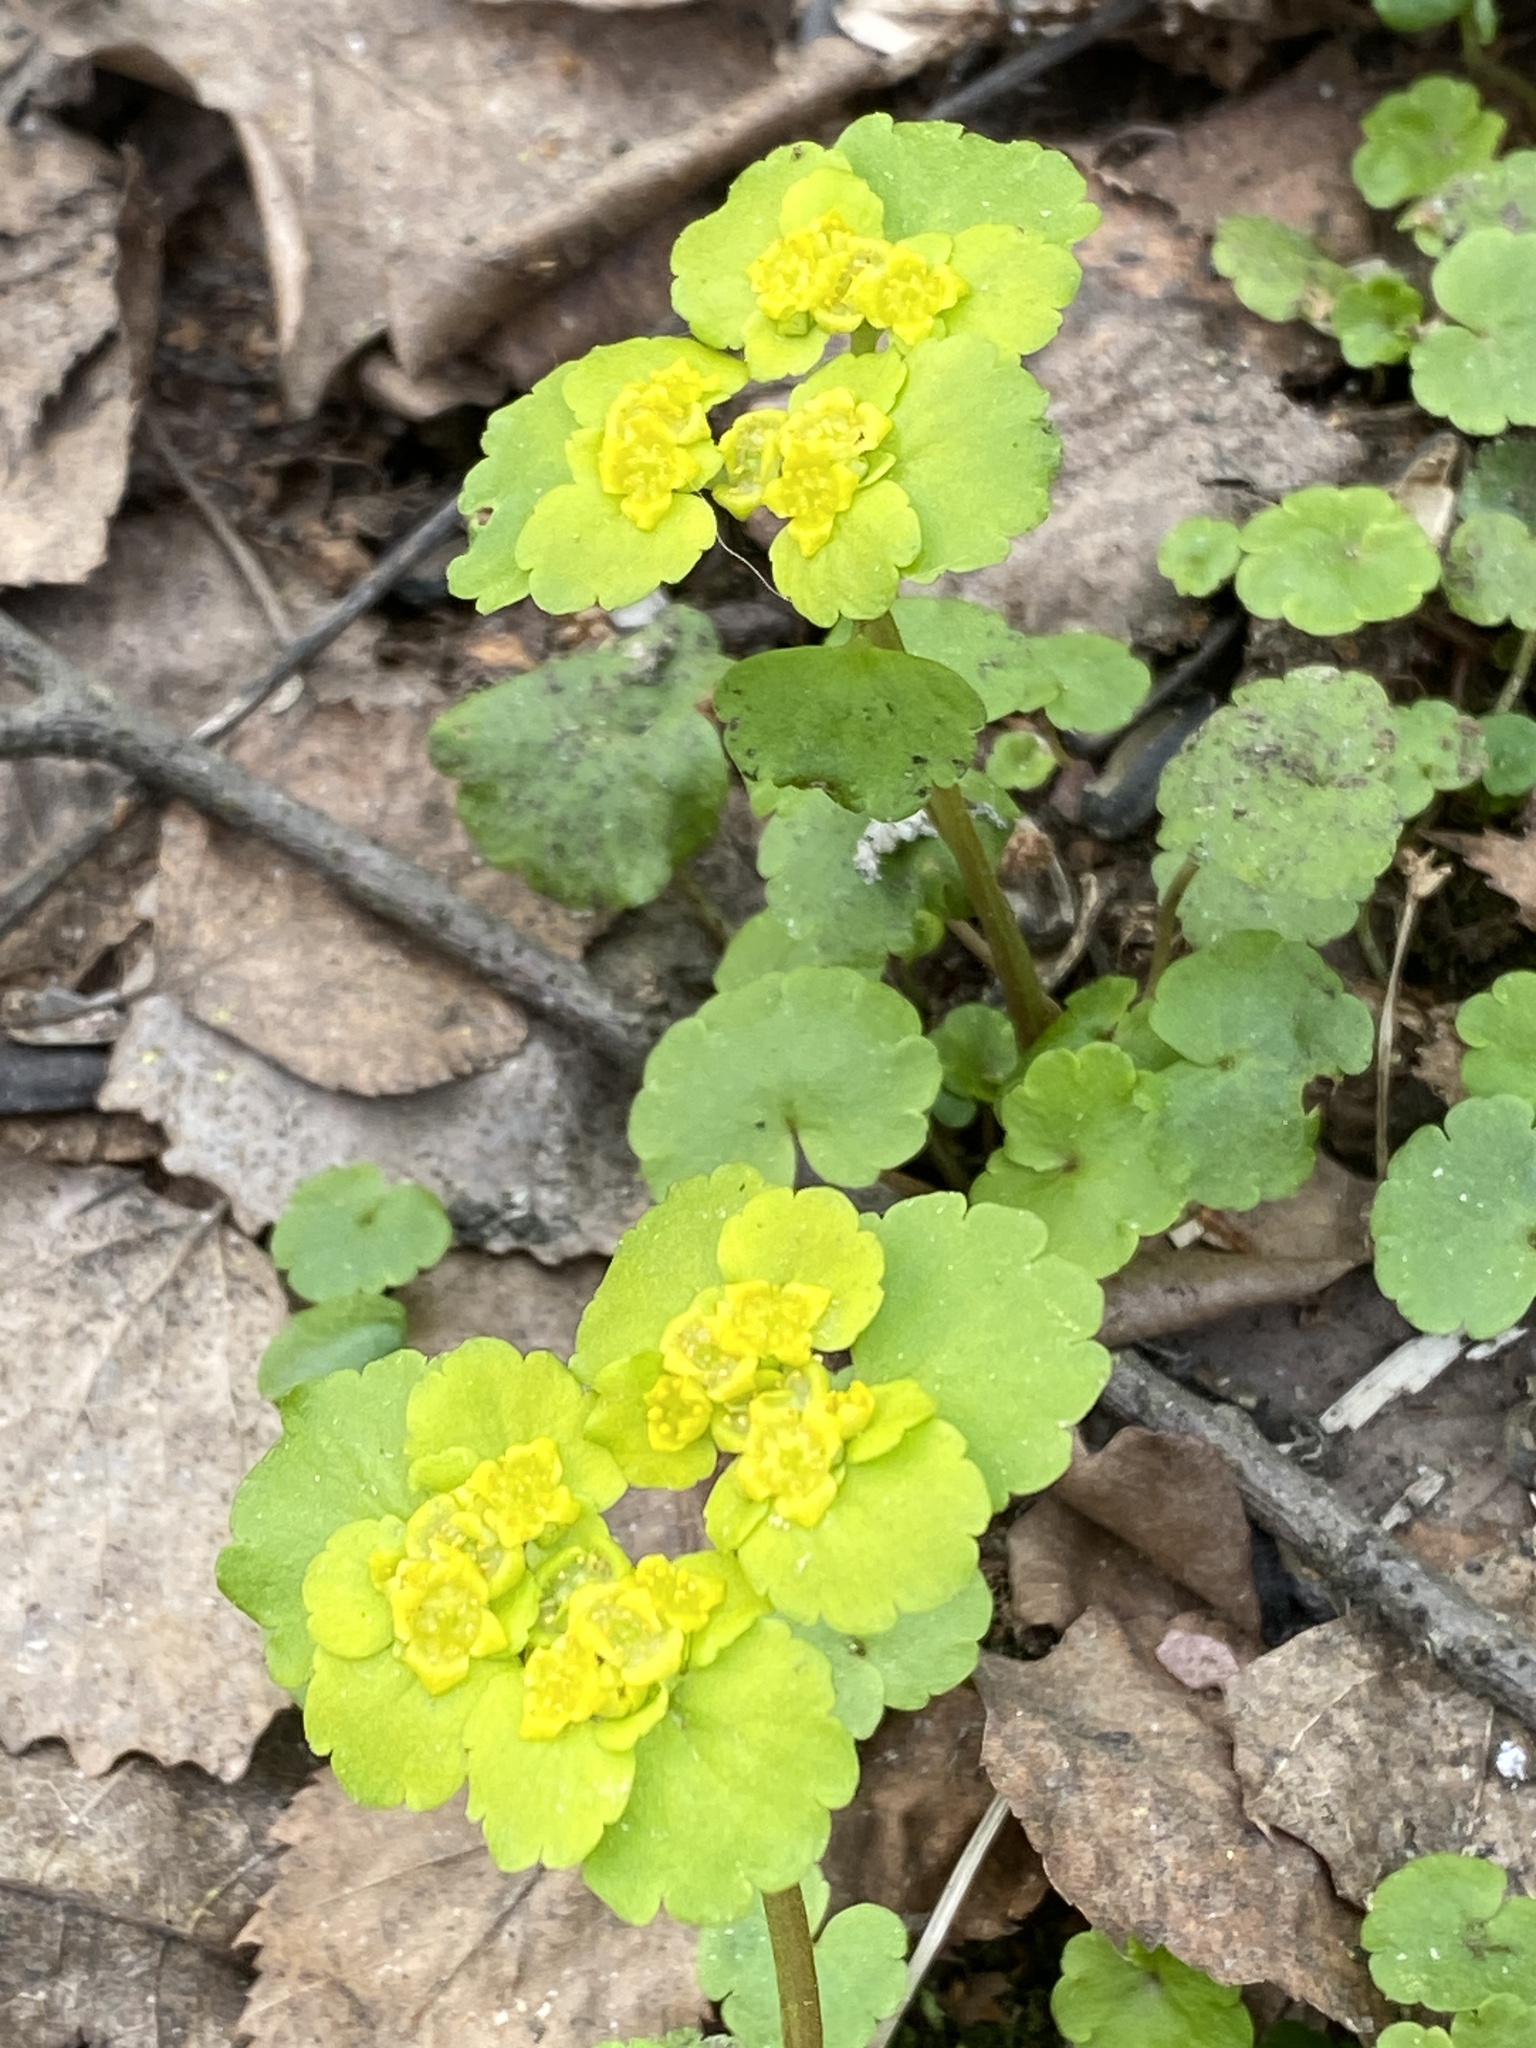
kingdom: Plantae
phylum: Tracheophyta
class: Magnoliopsida
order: Saxifragales
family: Saxifragaceae
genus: Chrysosplenium
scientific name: Chrysosplenium alternifolium
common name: Alternate-leaved golden-saxifrage
